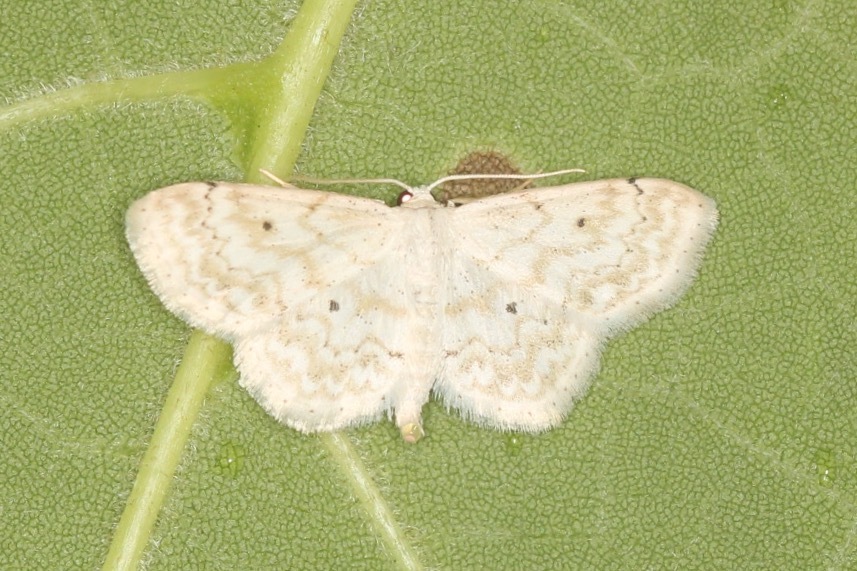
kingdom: Animalia
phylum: Arthropoda
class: Insecta
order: Lepidoptera
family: Geometridae
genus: Idaea
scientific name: Idaea obfusaria
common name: Rippled wave
